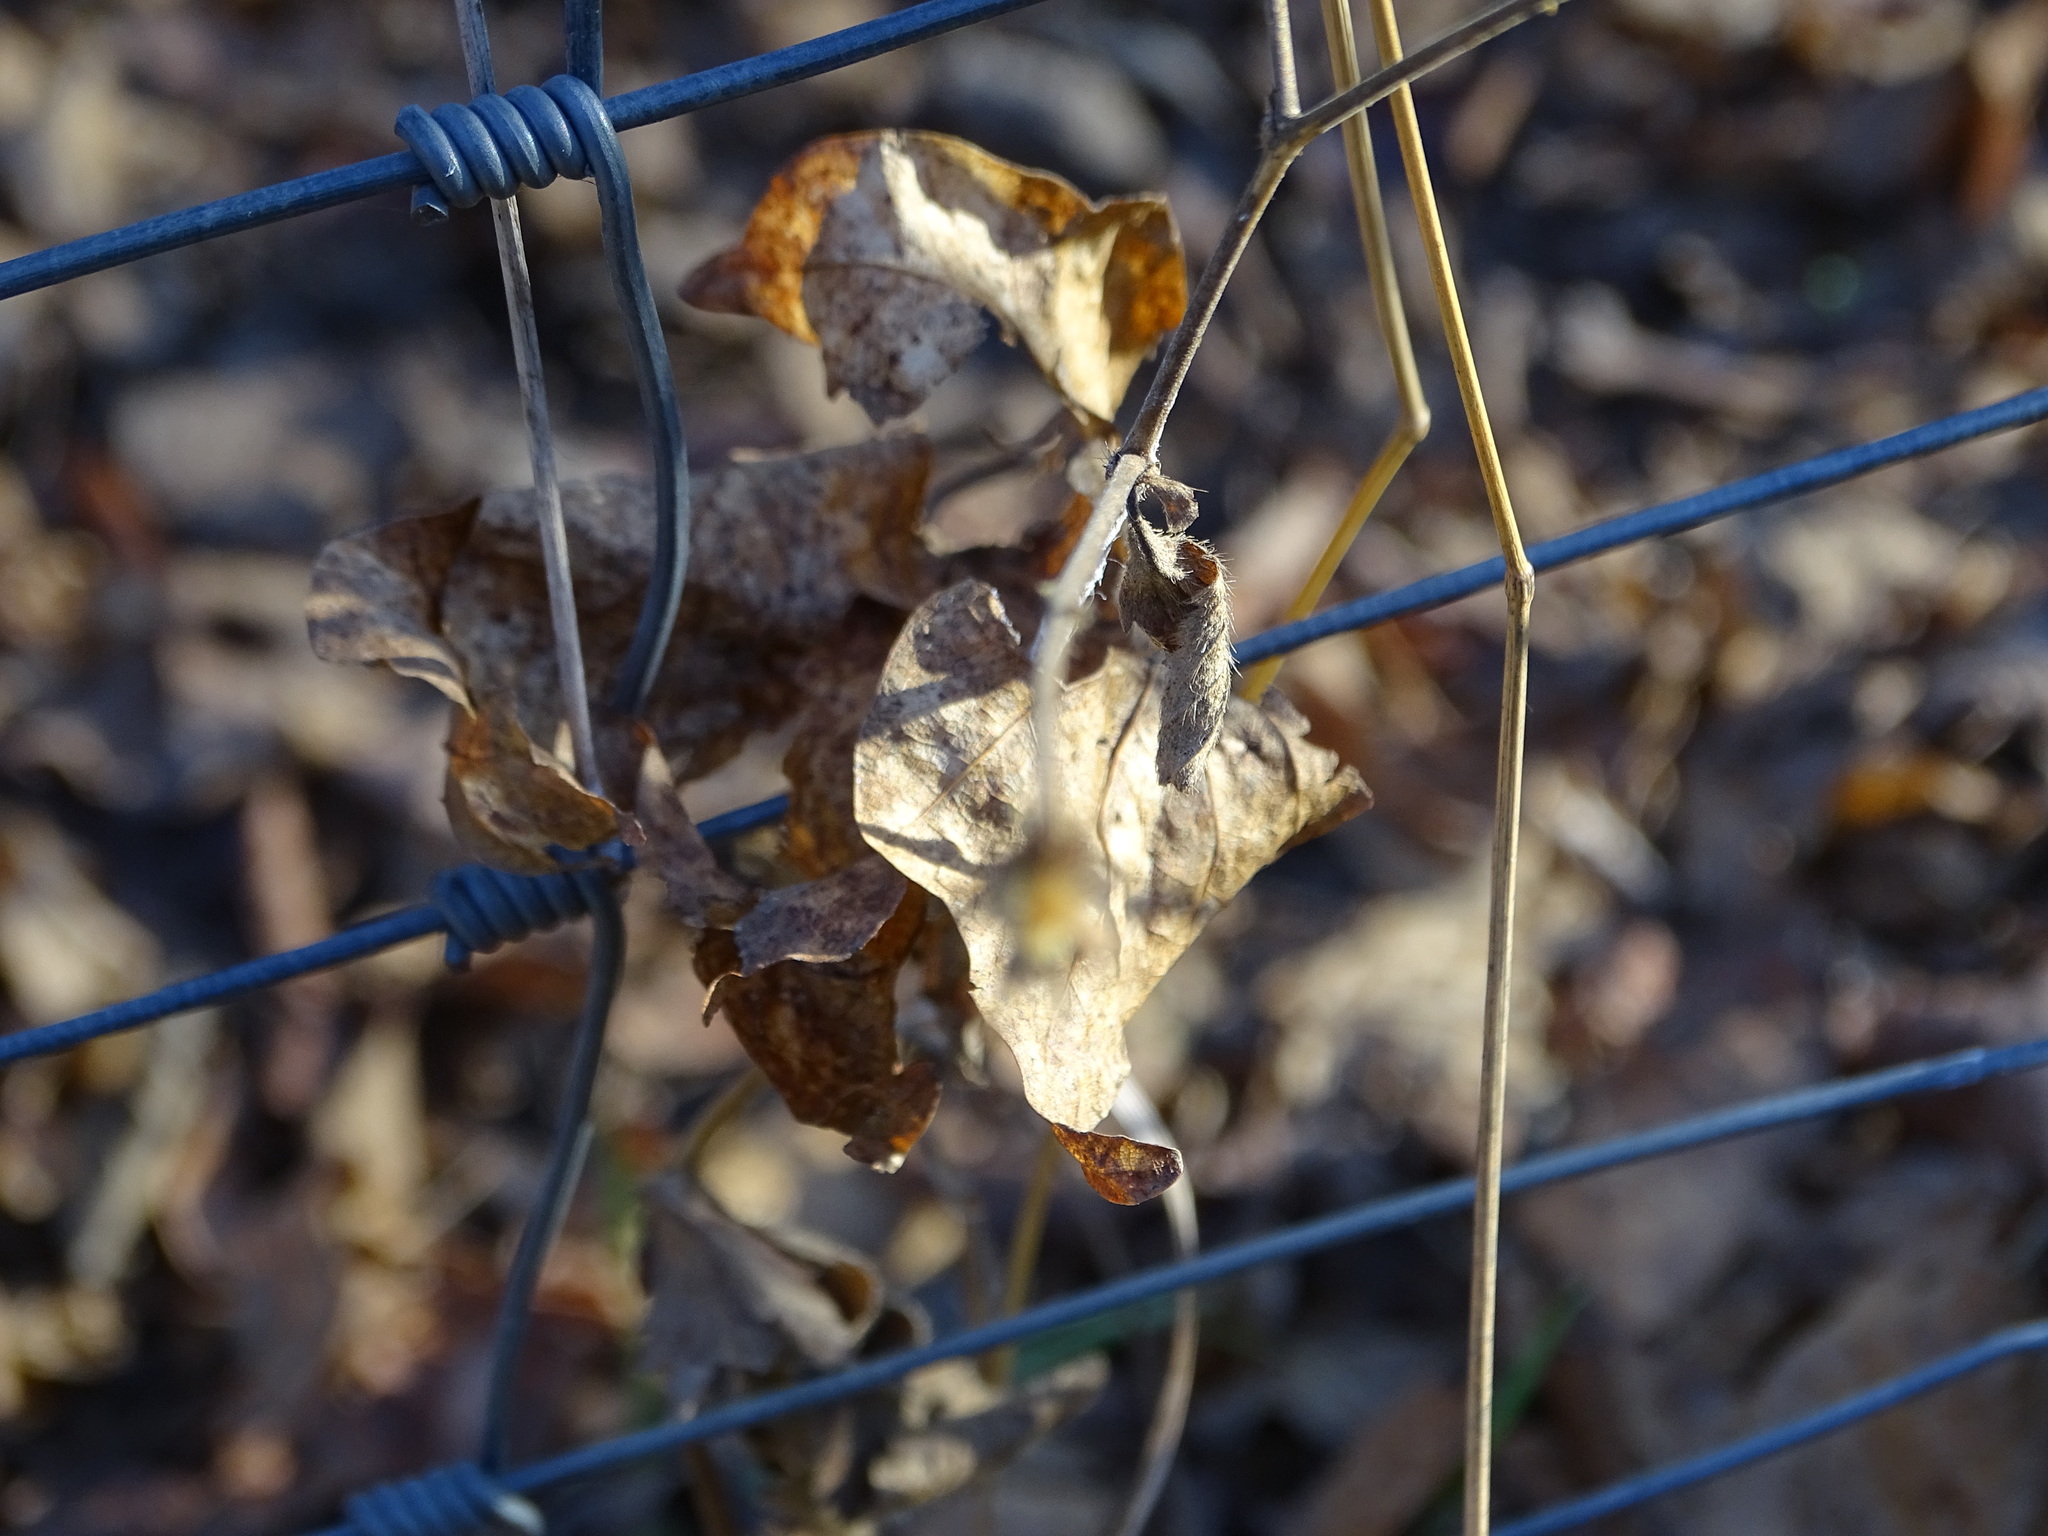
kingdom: Plantae
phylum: Tracheophyta
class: Magnoliopsida
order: Rosales
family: Rosaceae
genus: Geum
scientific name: Geum urbanum
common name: Wood avens
